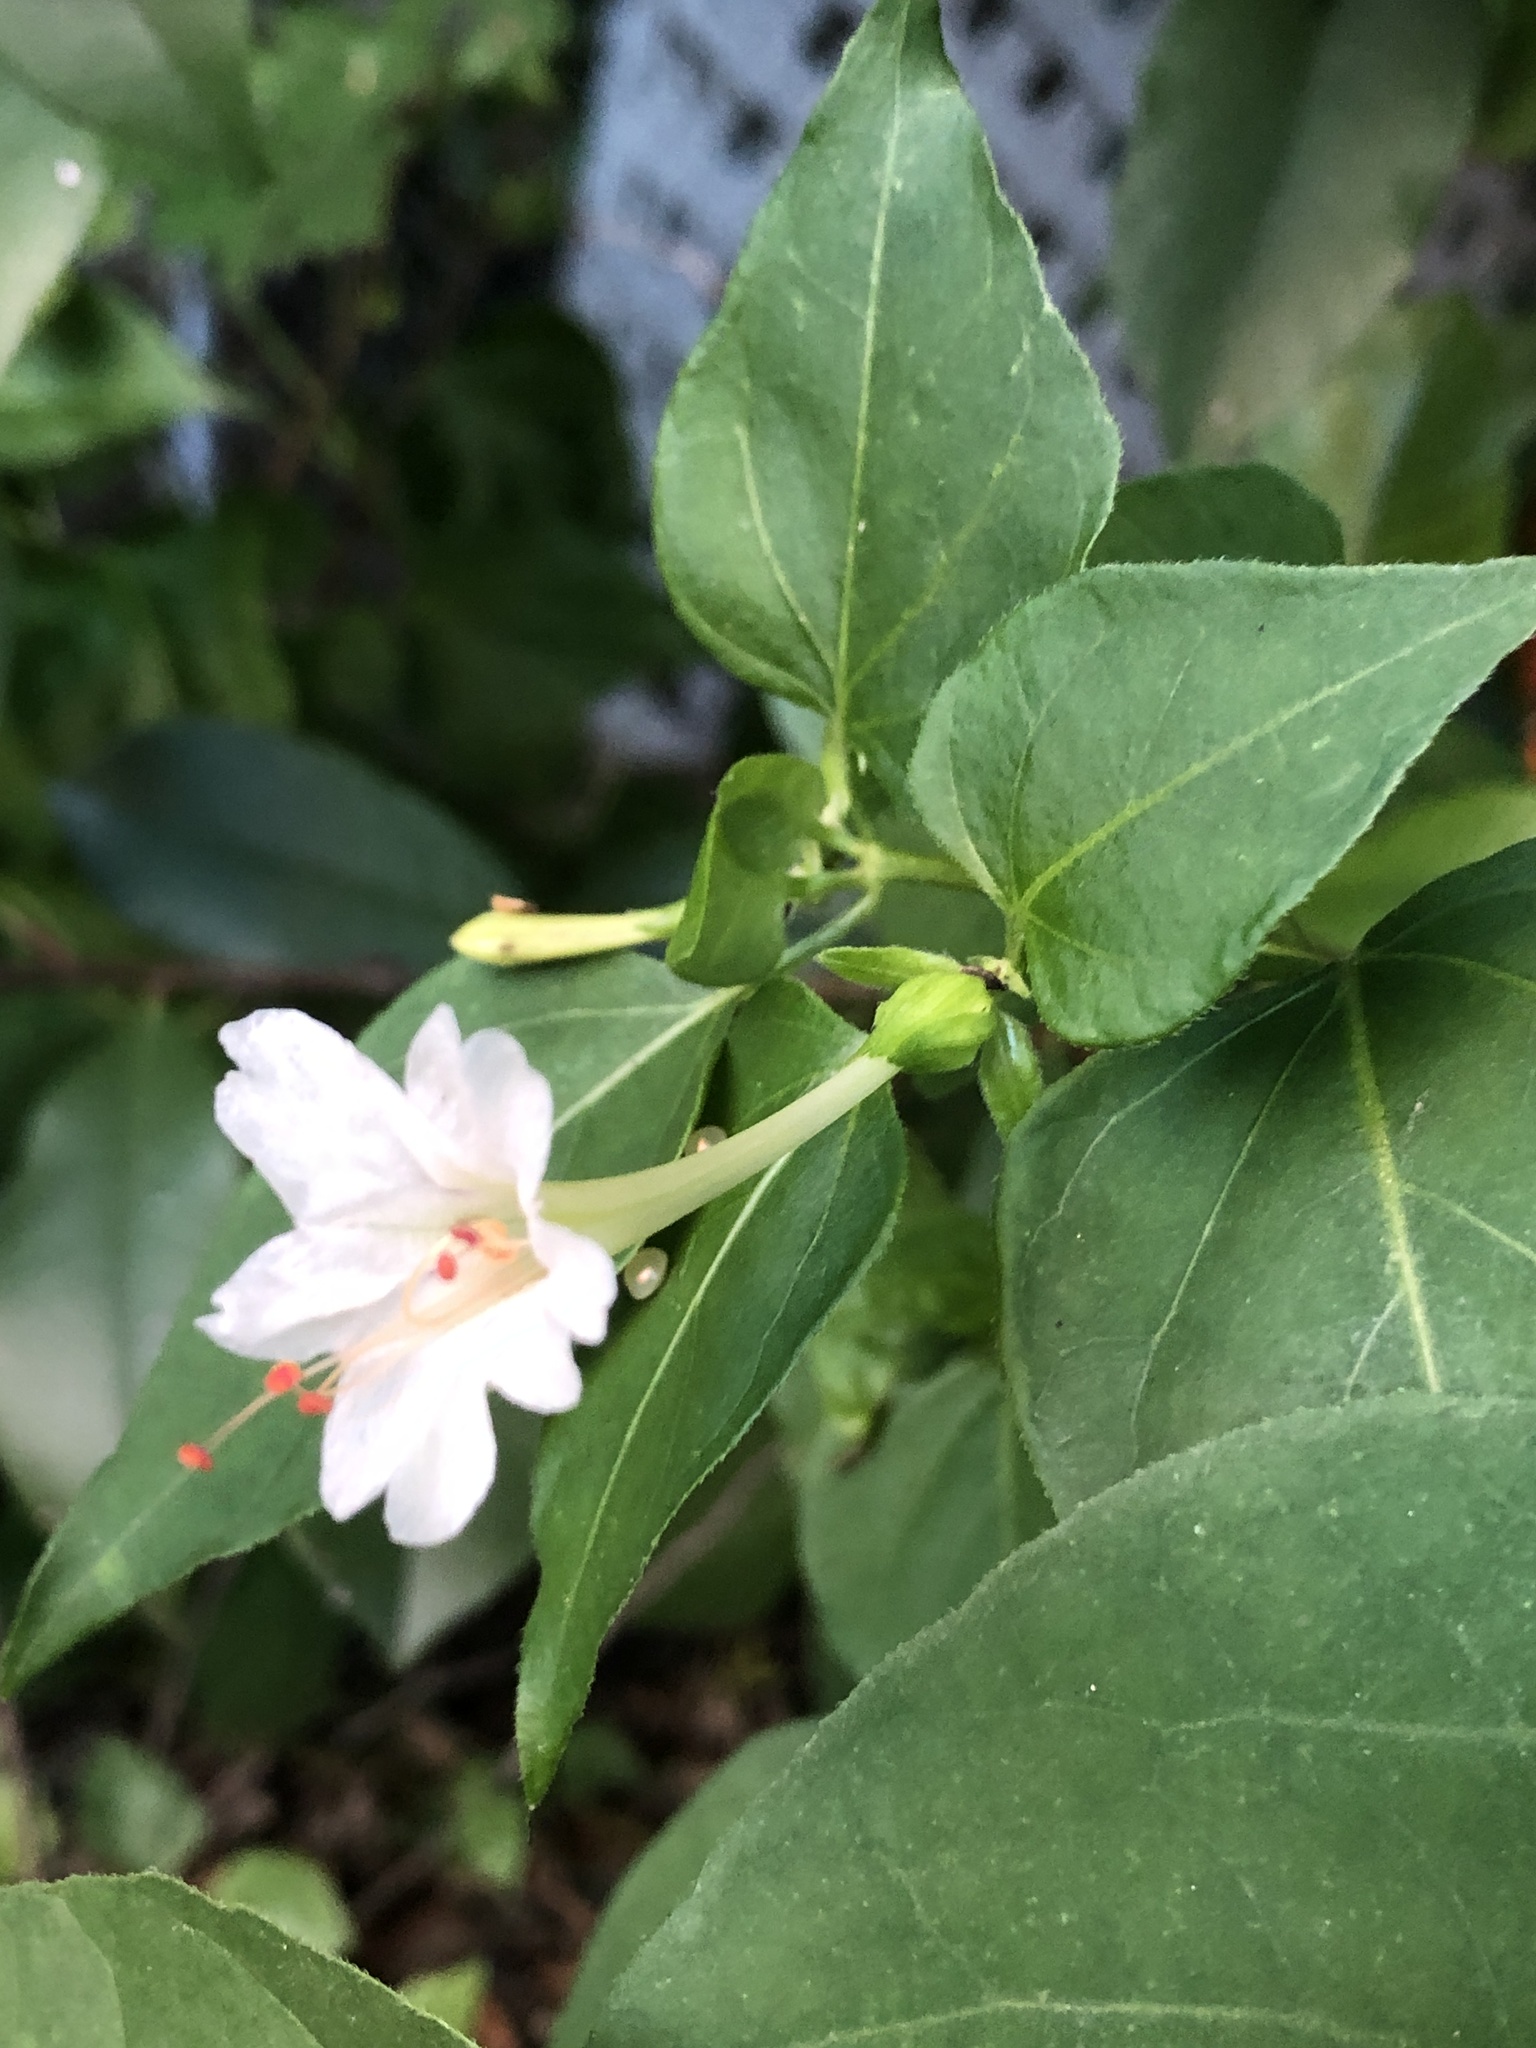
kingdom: Plantae
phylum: Tracheophyta
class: Magnoliopsida
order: Caryophyllales
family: Nyctaginaceae
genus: Mirabilis
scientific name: Mirabilis jalapa
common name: Marvel-of-peru
